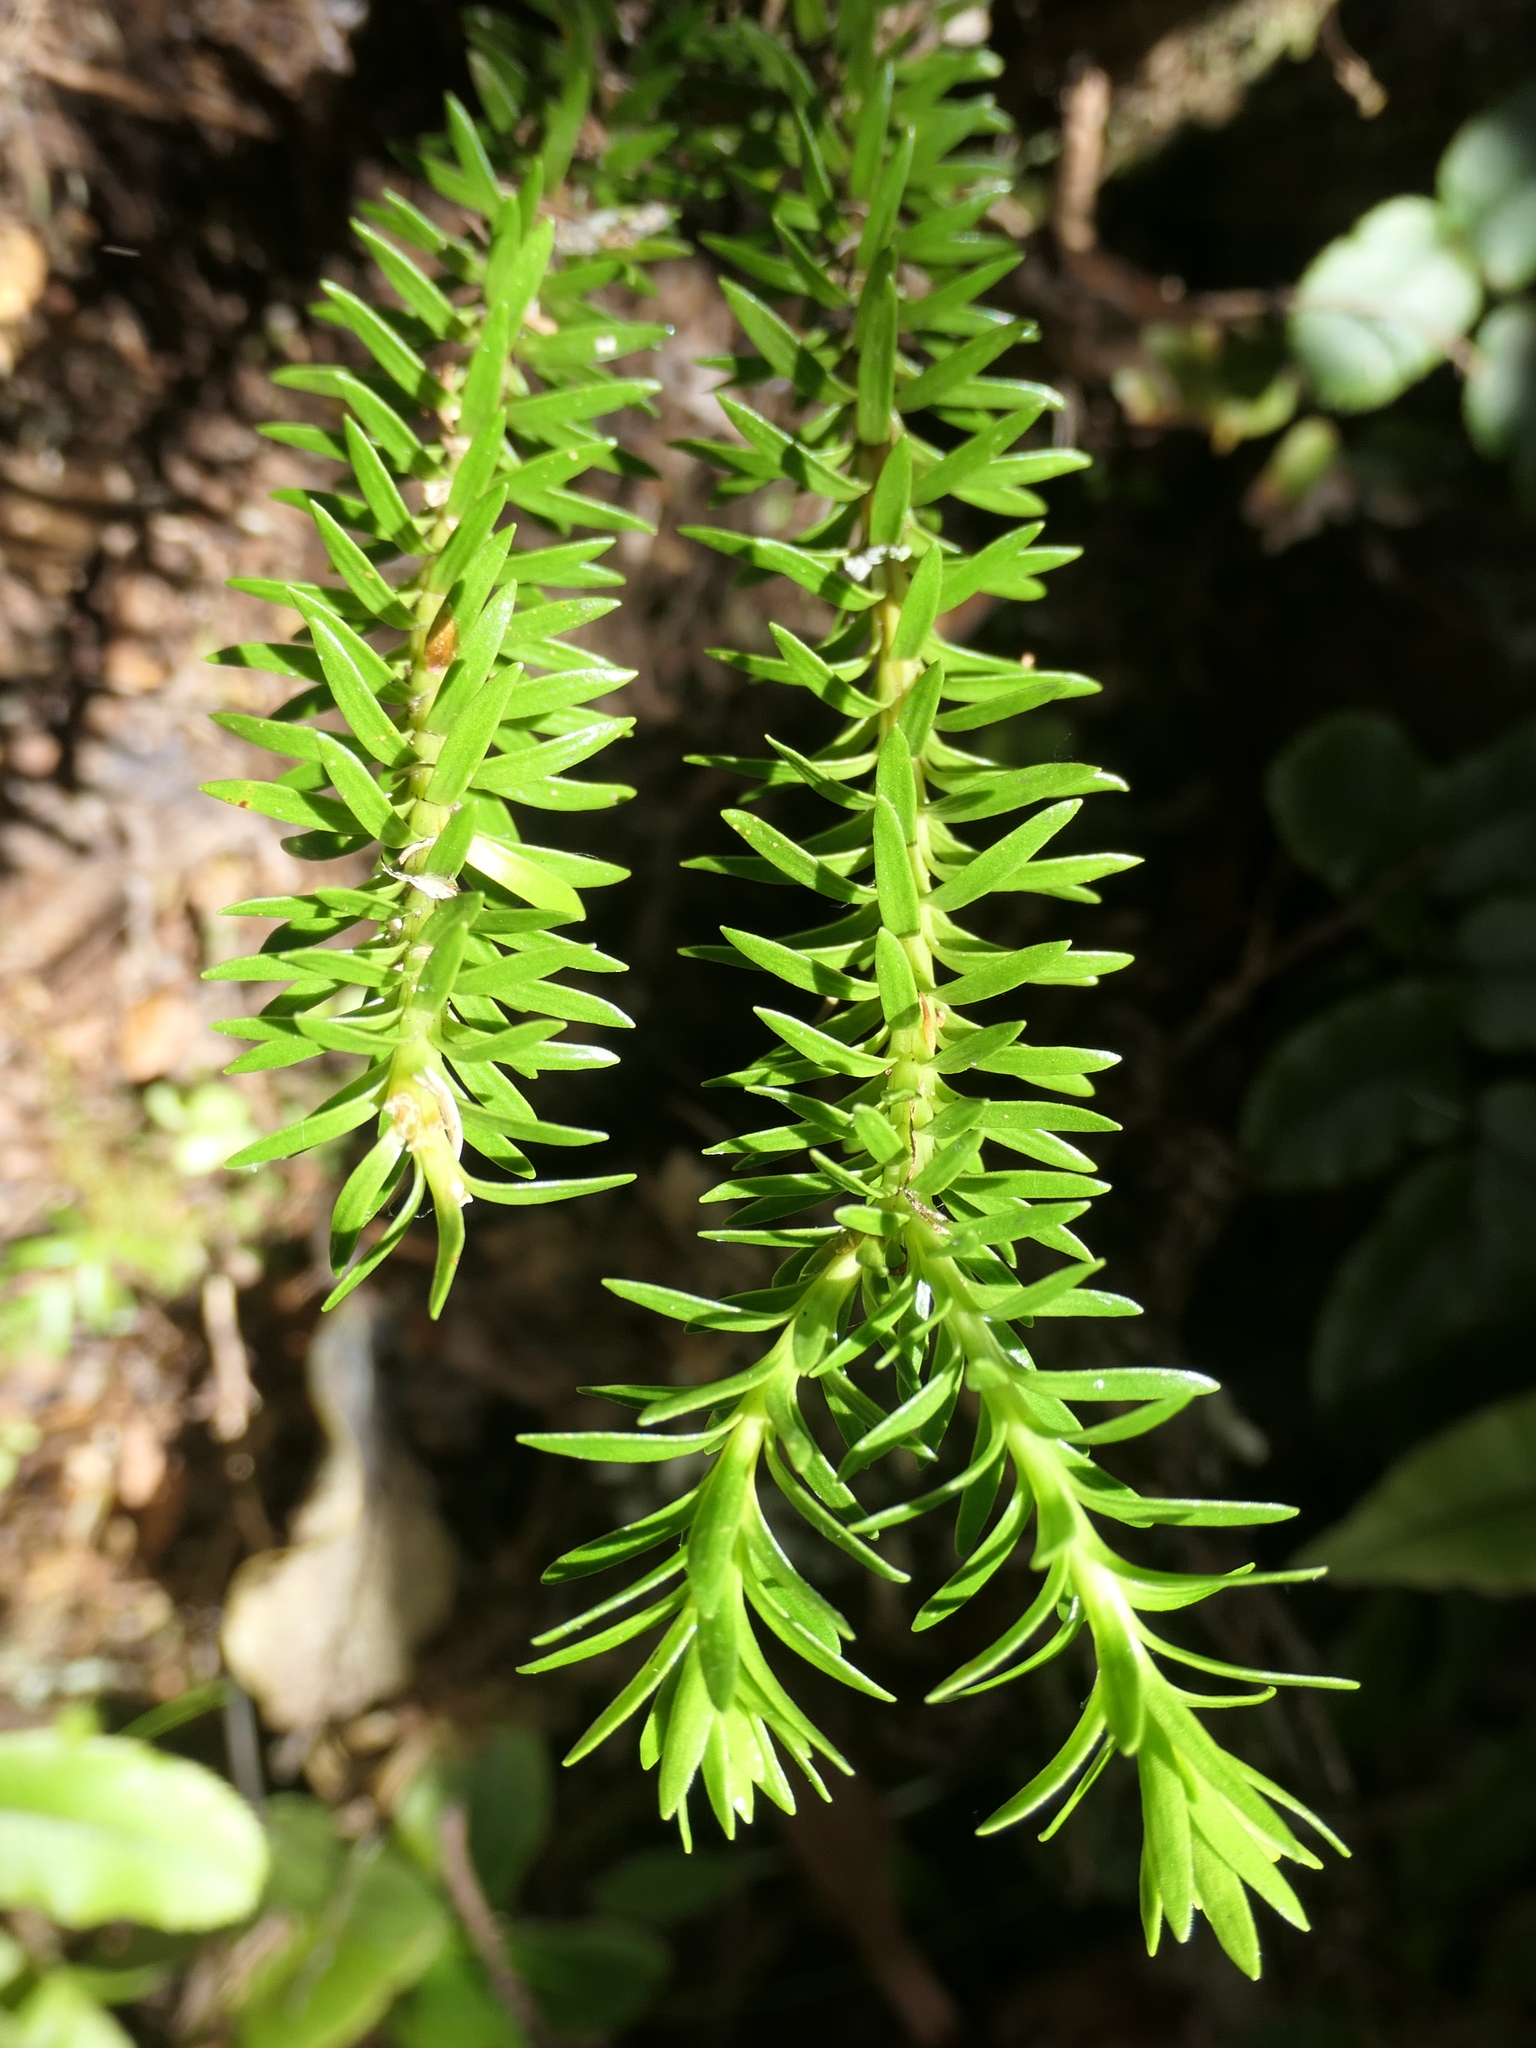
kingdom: Plantae
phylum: Tracheophyta
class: Lycopodiopsida
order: Lycopodiales
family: Lycopodiaceae
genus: Phlegmariurus
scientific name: Phlegmariurus varius
